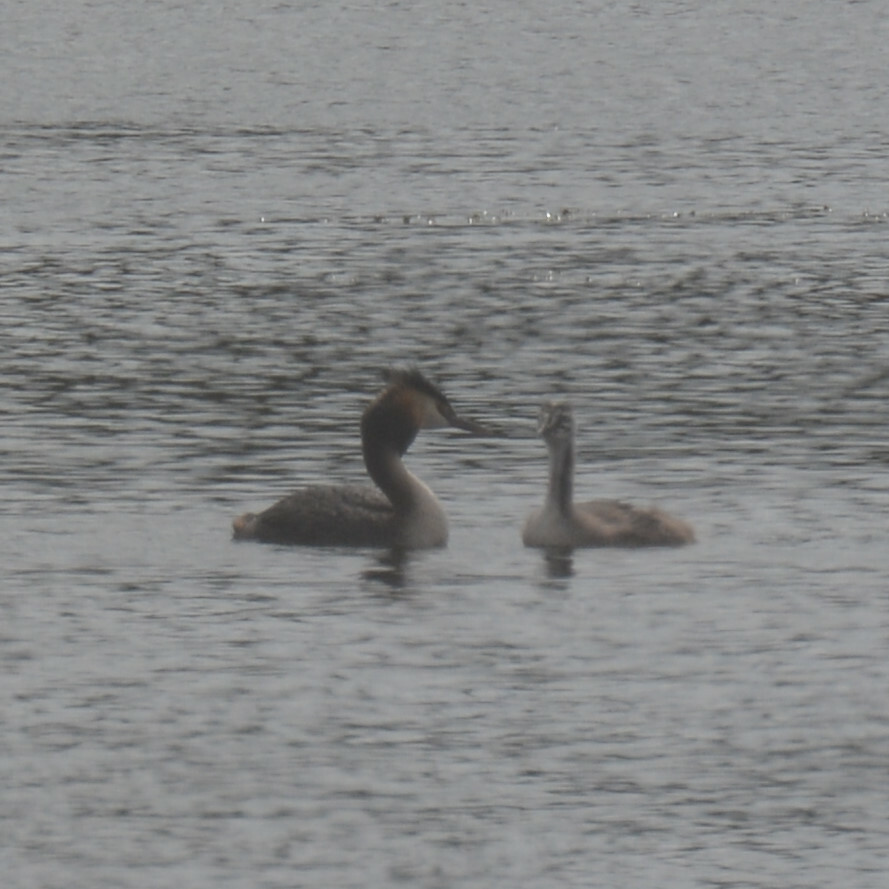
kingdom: Animalia
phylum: Chordata
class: Aves
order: Podicipediformes
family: Podicipedidae
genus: Podiceps
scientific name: Podiceps cristatus
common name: Great crested grebe
